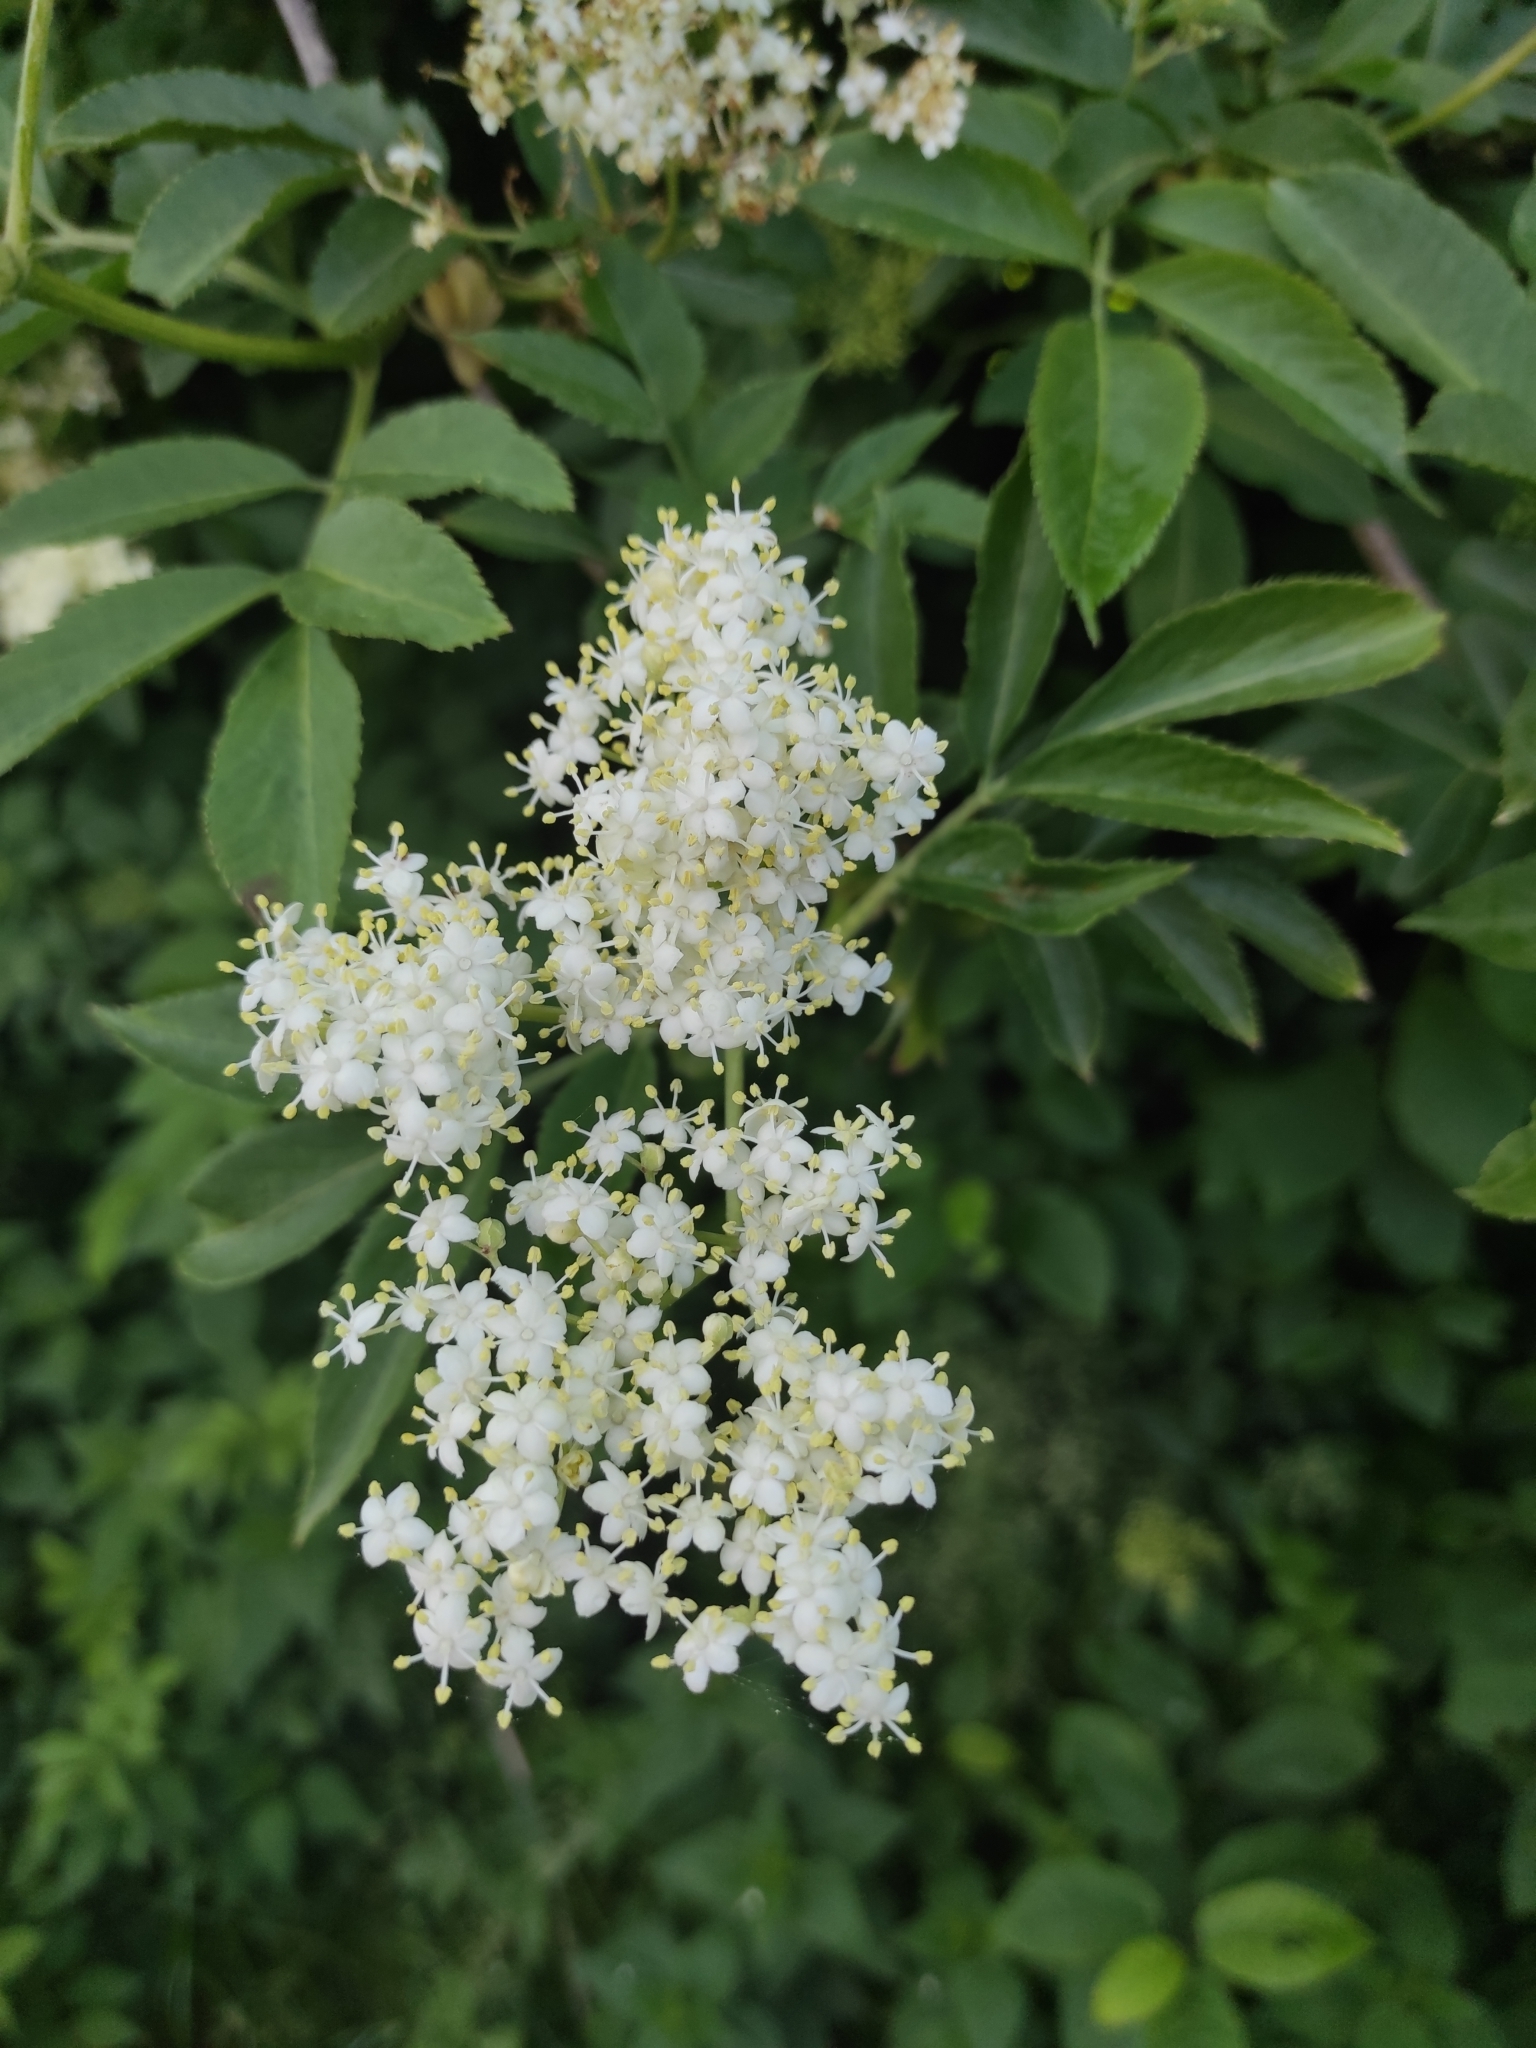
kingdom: Plantae
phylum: Tracheophyta
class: Magnoliopsida
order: Dipsacales
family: Viburnaceae
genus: Sambucus
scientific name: Sambucus nigra
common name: Elder
